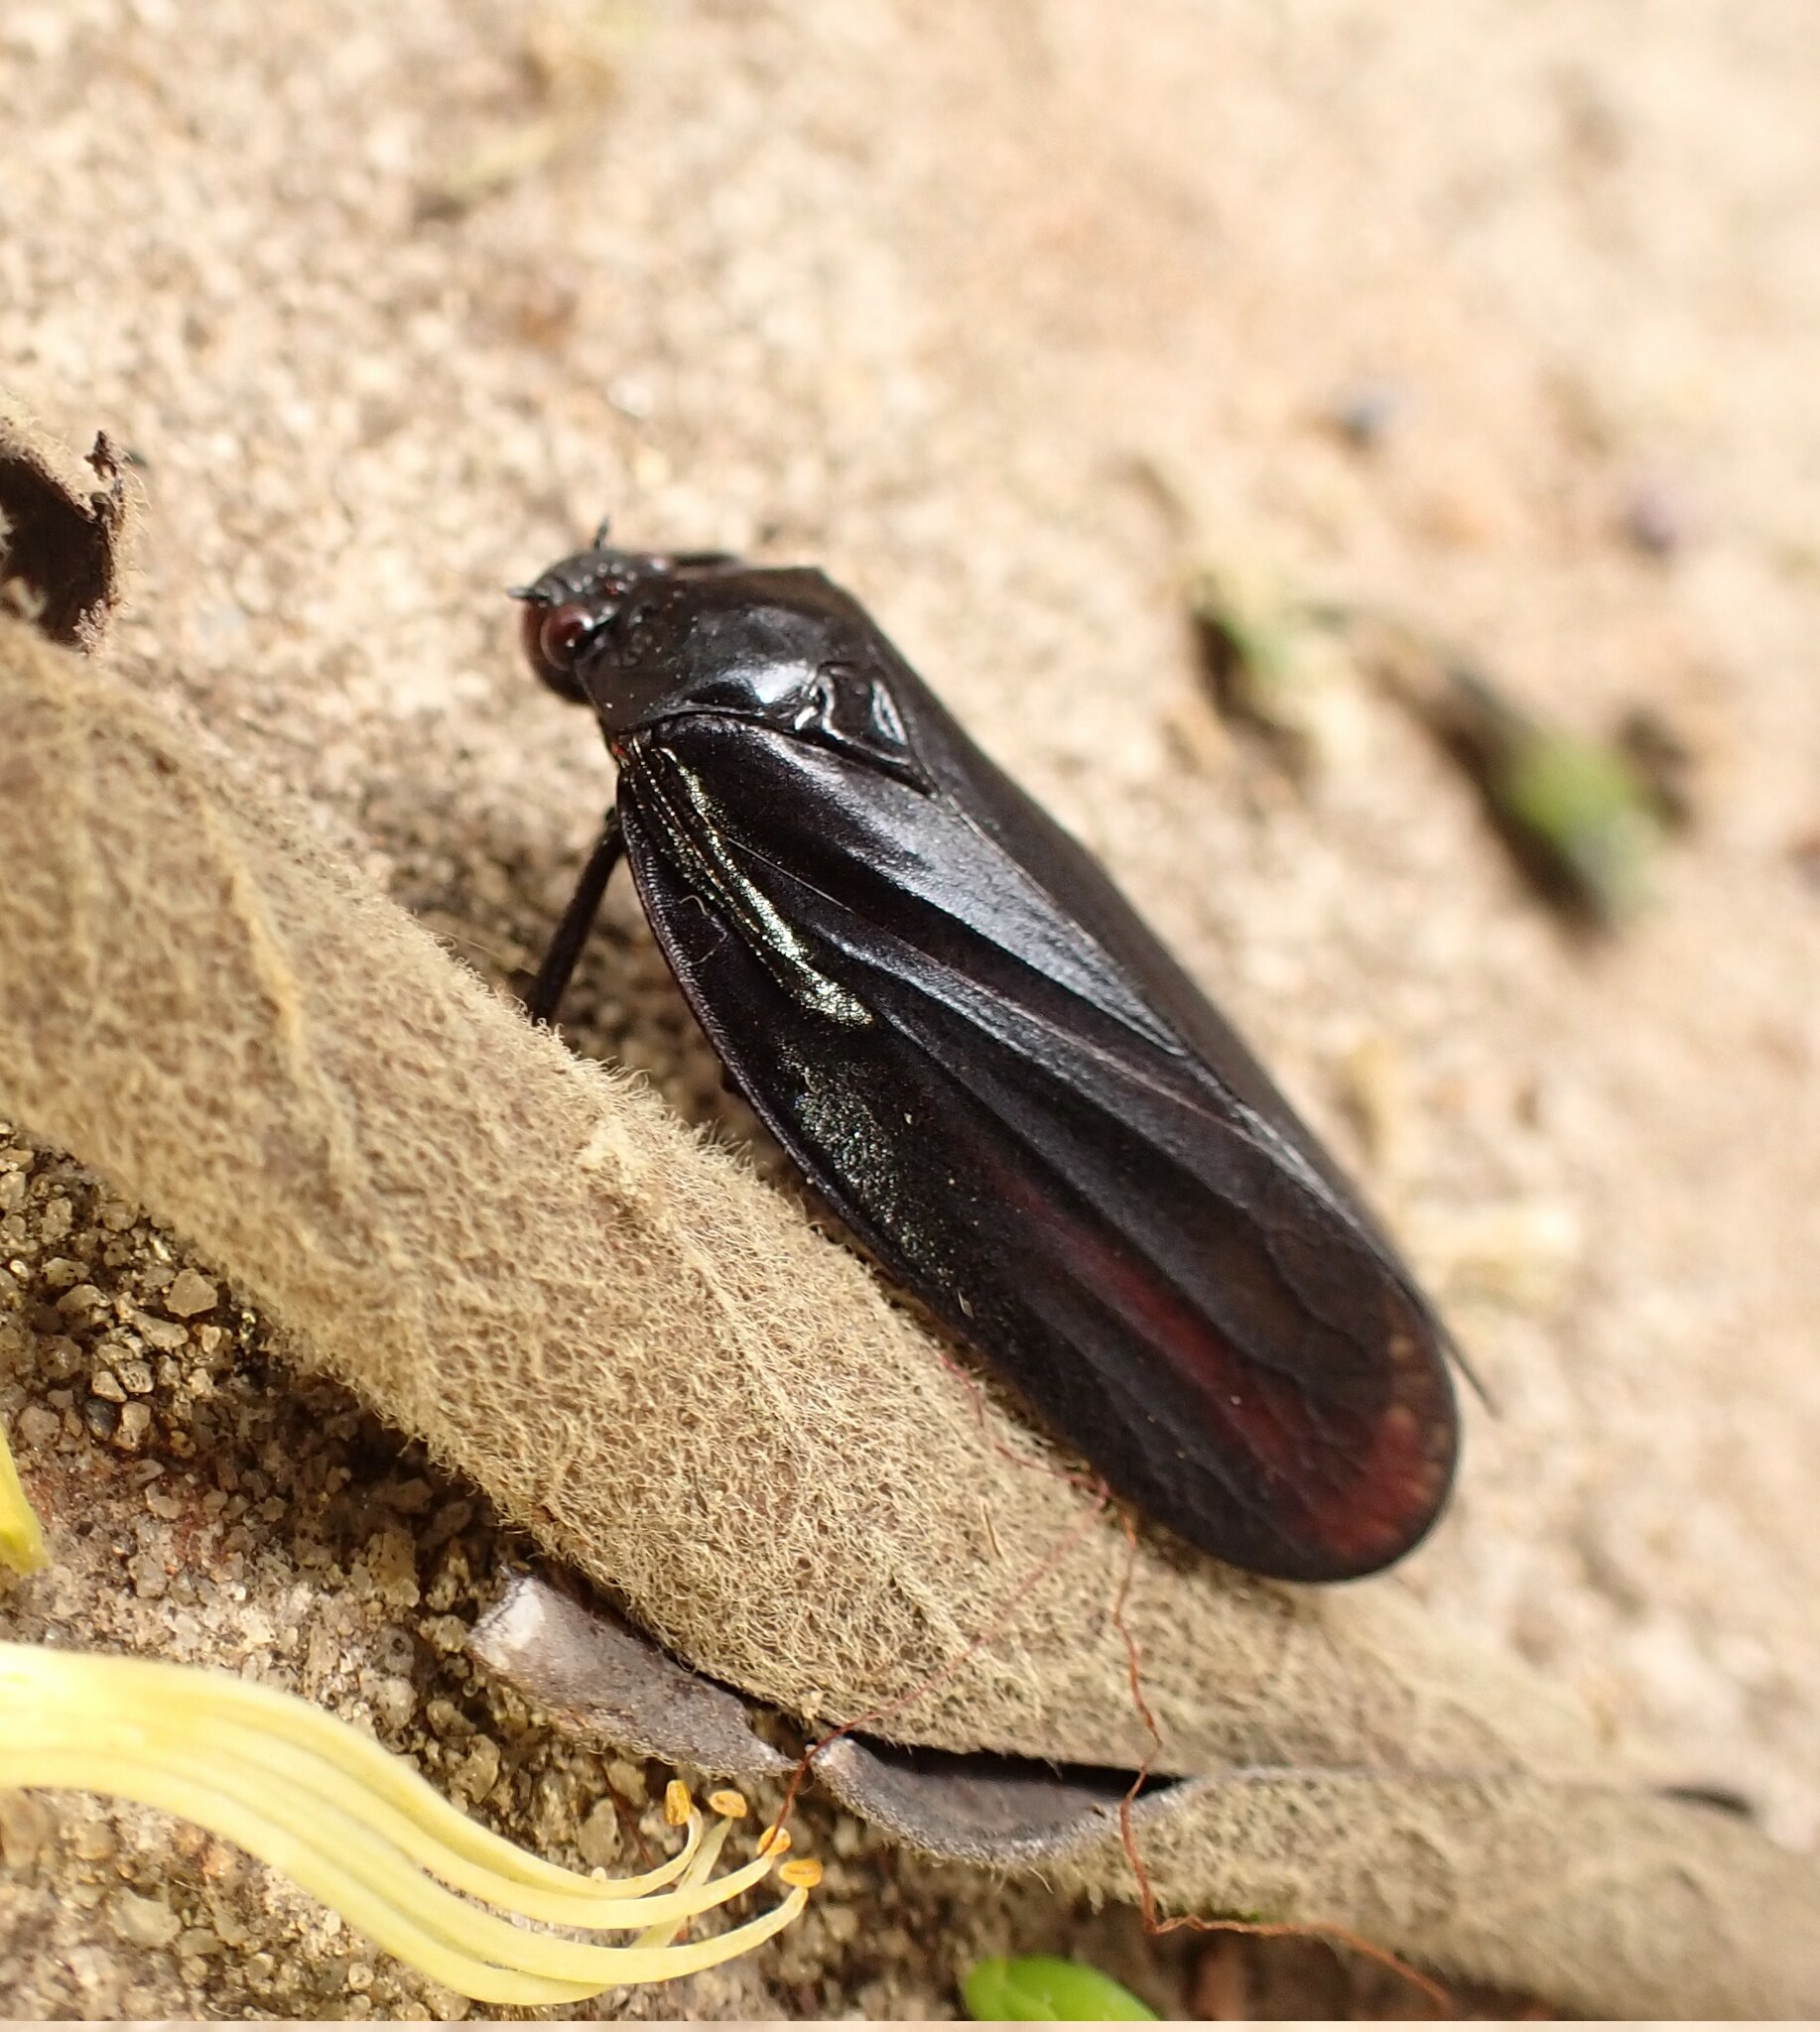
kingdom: Animalia
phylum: Arthropoda
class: Insecta
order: Hemiptera
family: Cercopidae
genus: Tomaspis
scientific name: Tomaspis furcata
